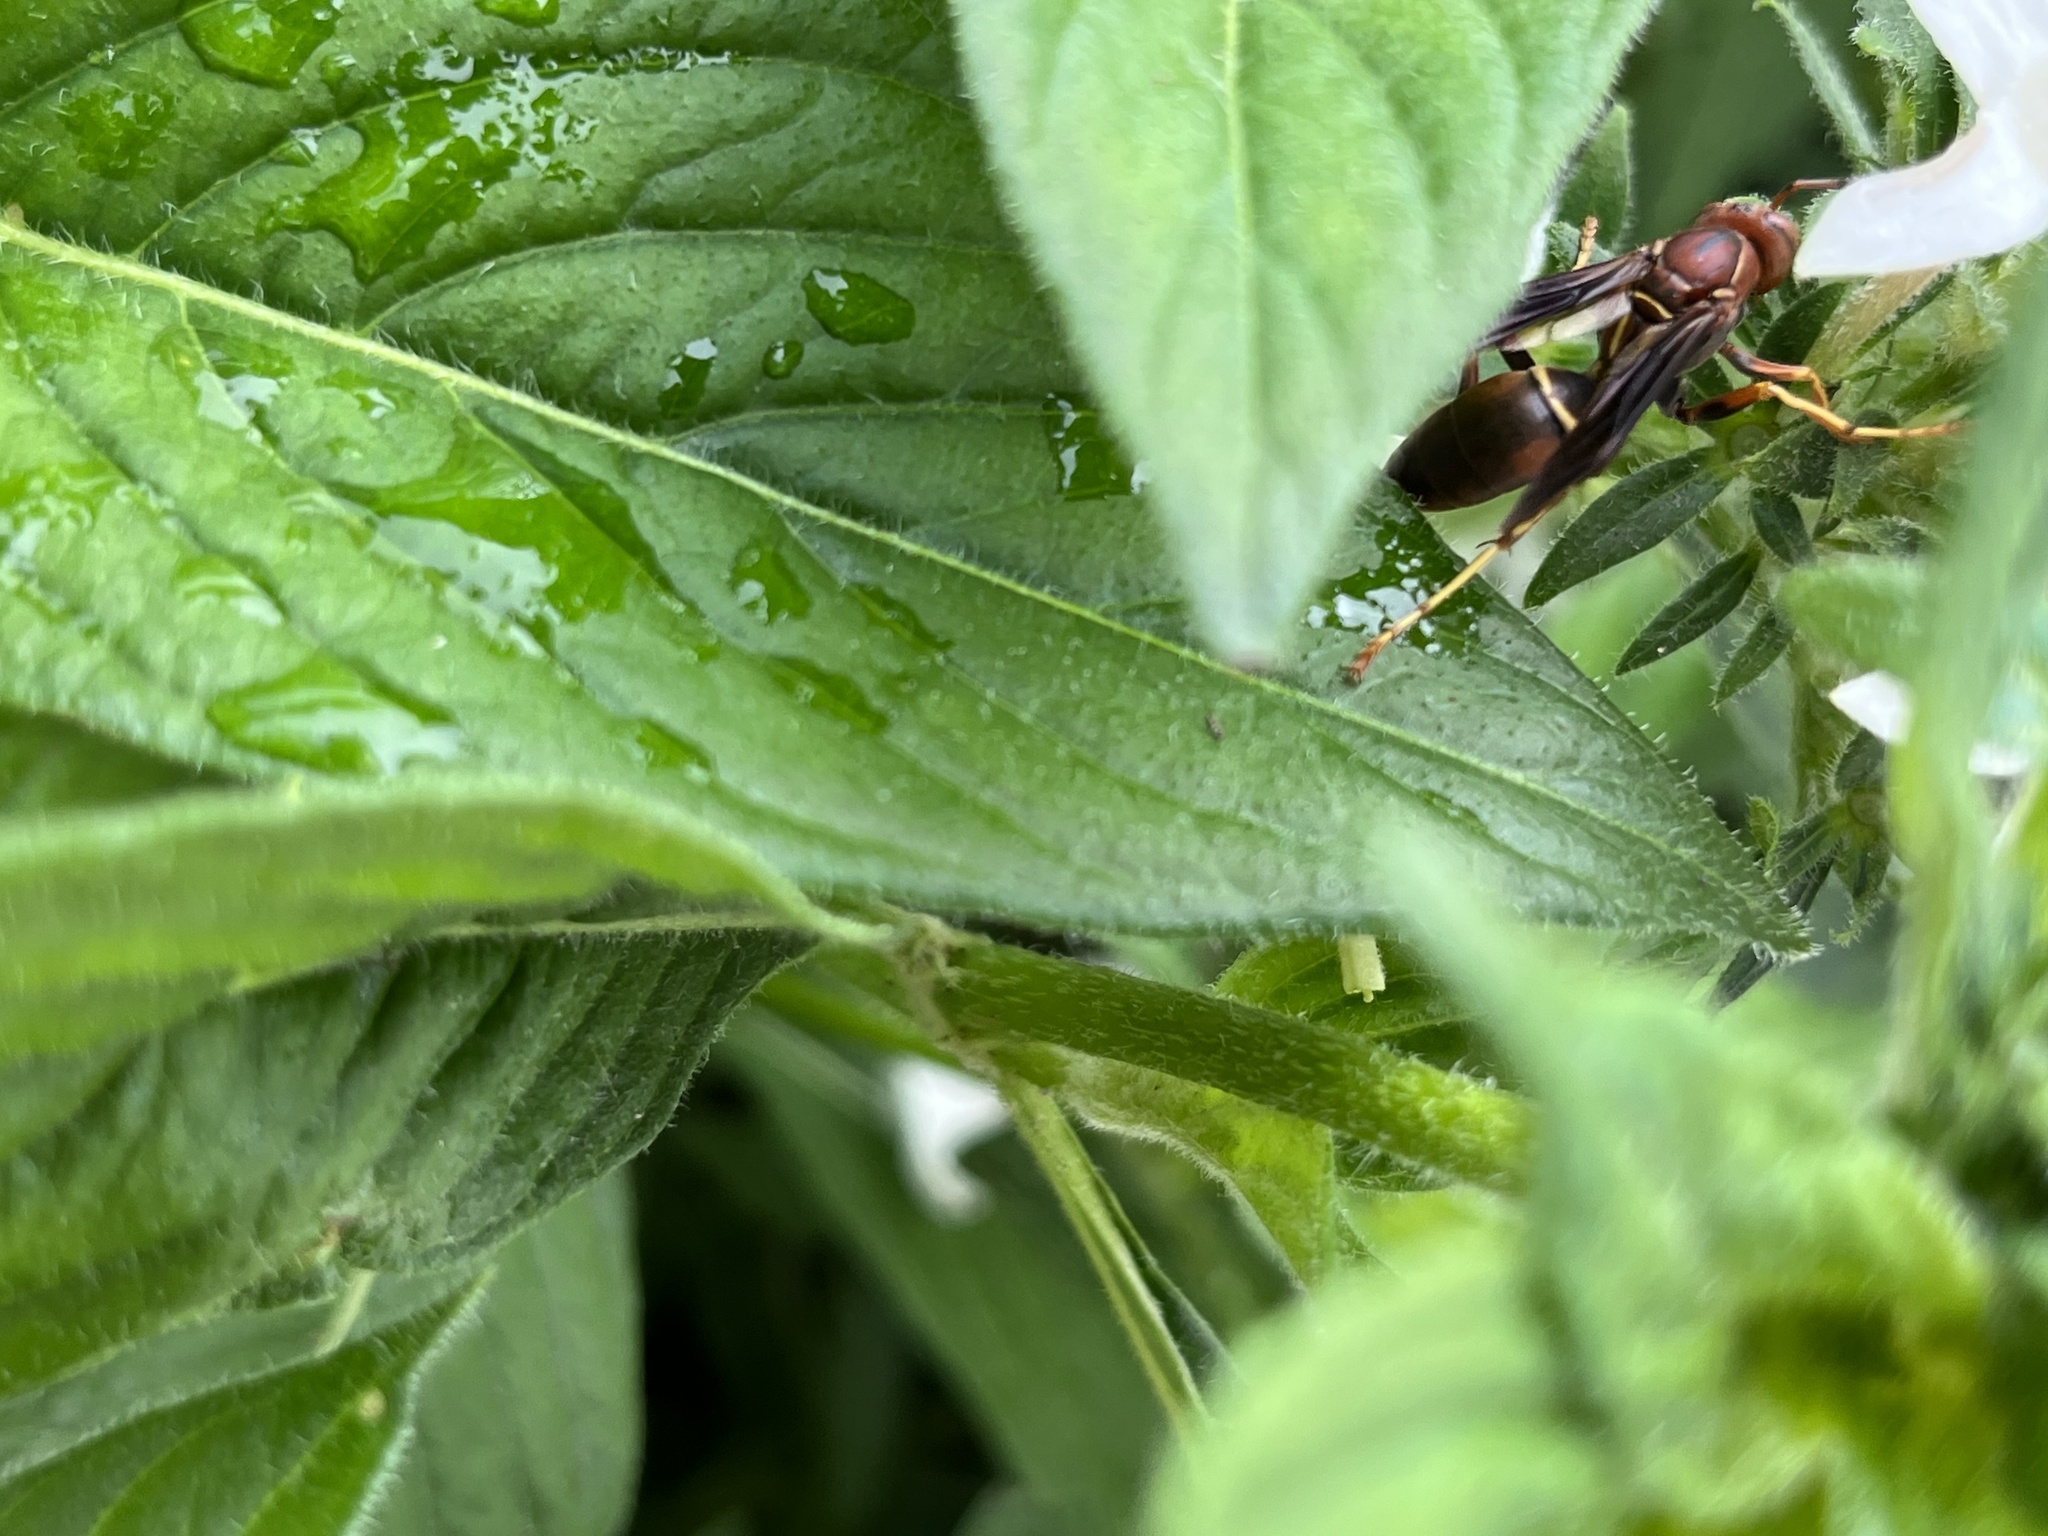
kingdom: Animalia
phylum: Arthropoda
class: Insecta
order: Hymenoptera
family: Vespidae
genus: Fuscopolistes
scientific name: Fuscopolistes
